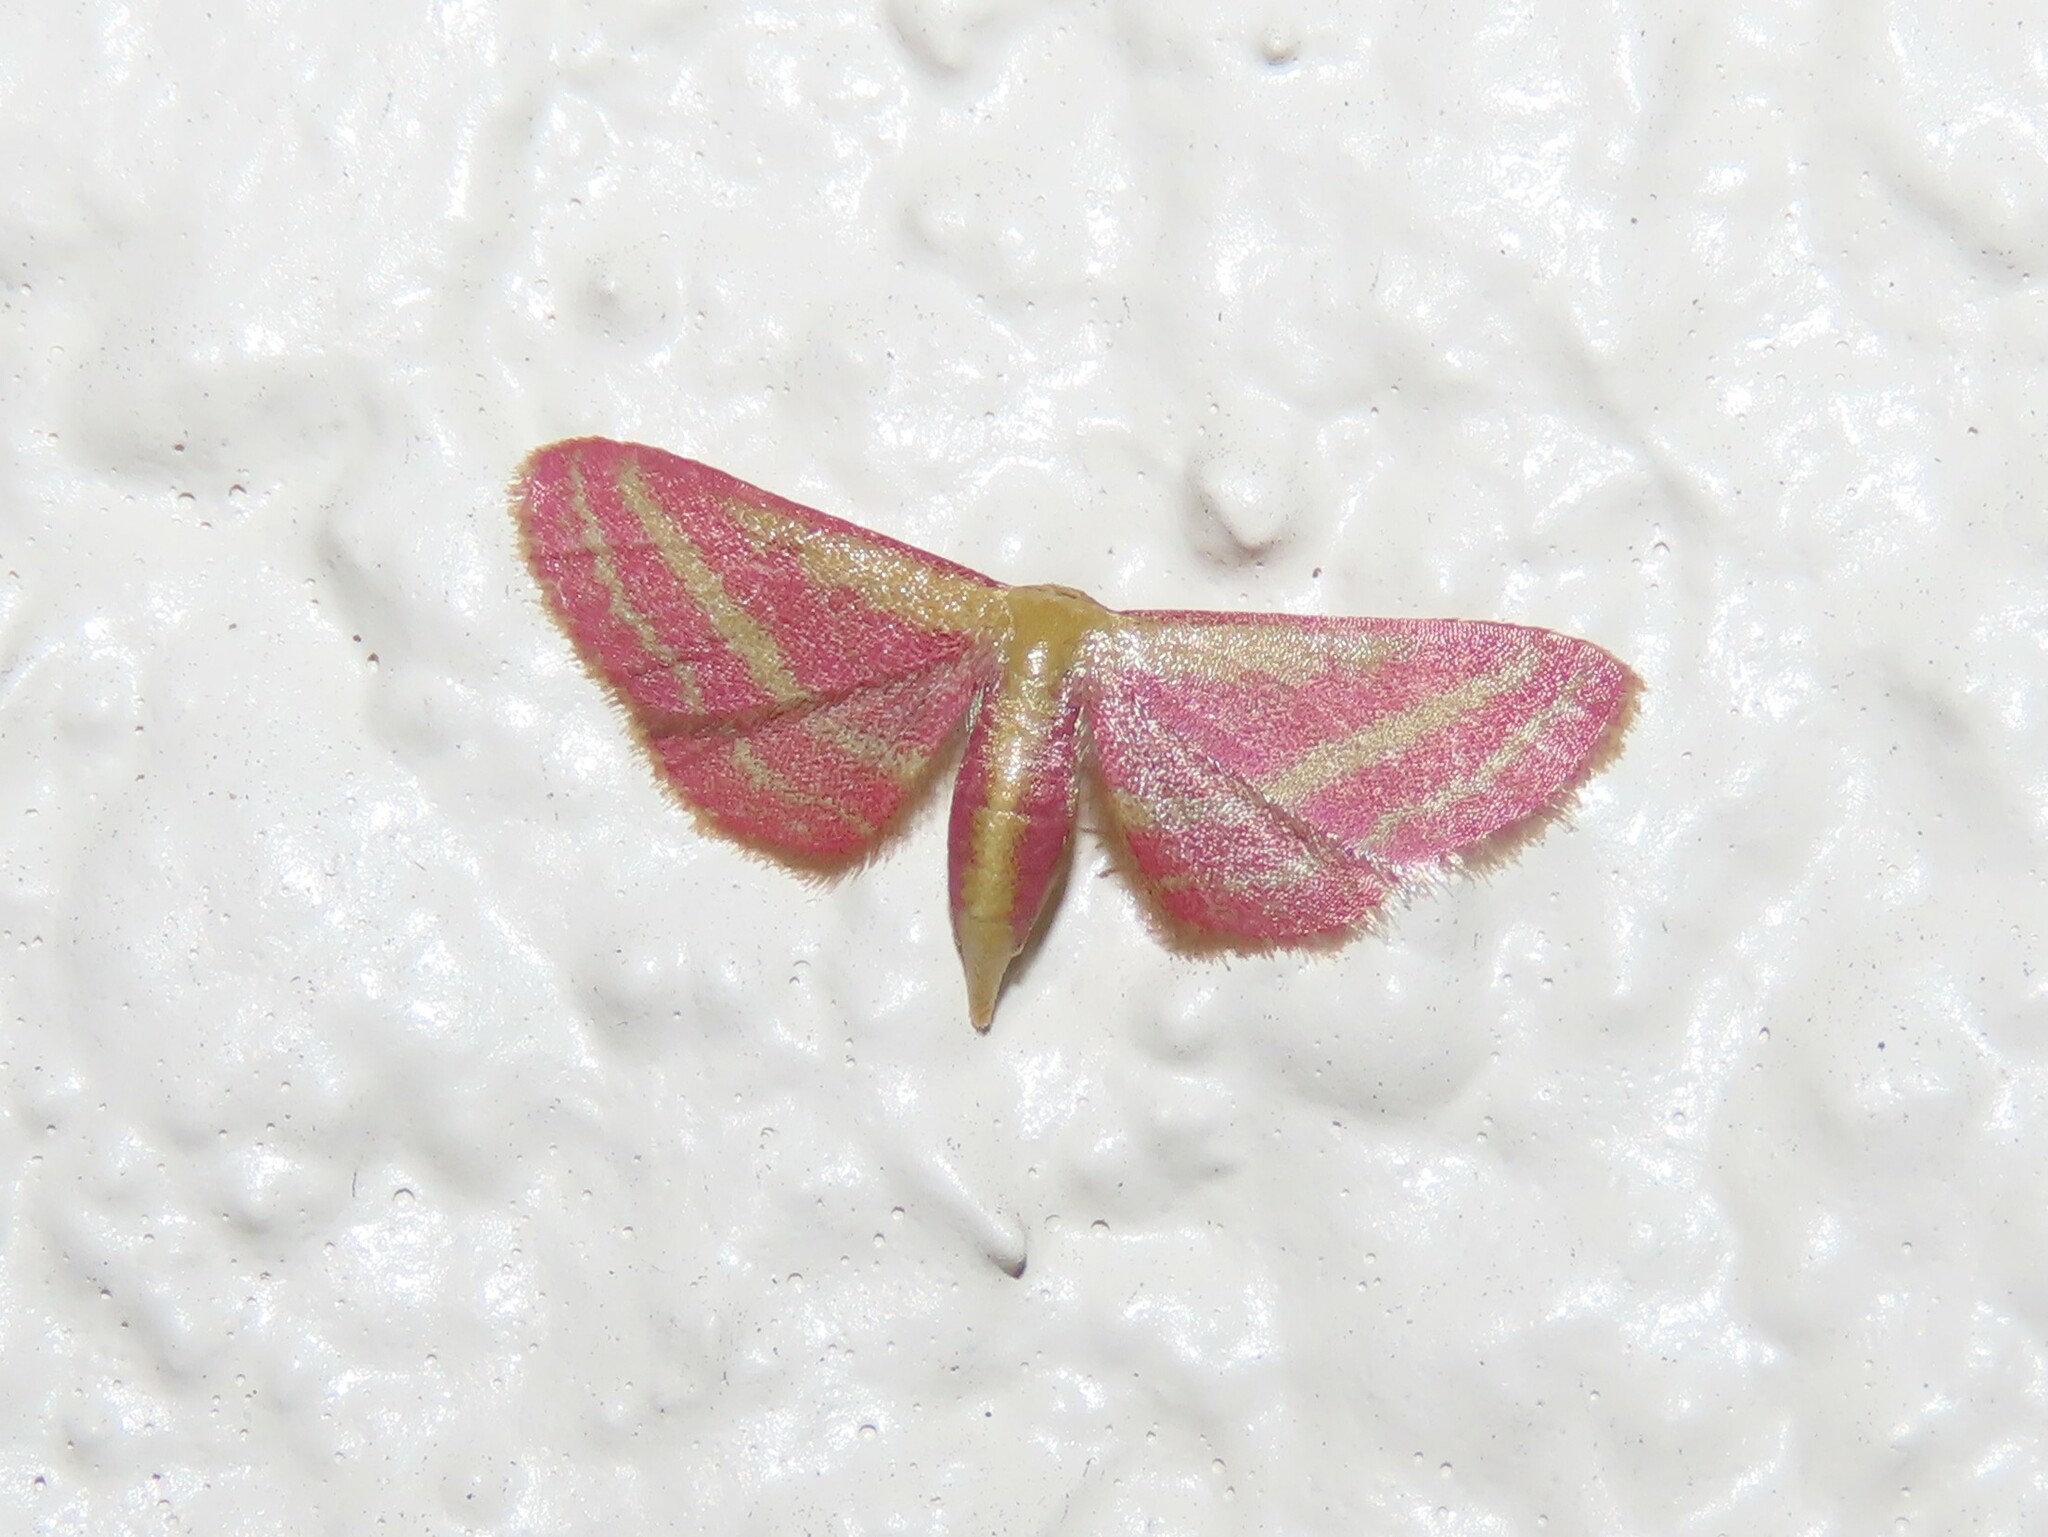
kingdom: Animalia
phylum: Arthropoda
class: Insecta
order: Lepidoptera
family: Geometridae
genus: Leptostales
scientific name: Leptostales laevitaria
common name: Raspberry wave moth
